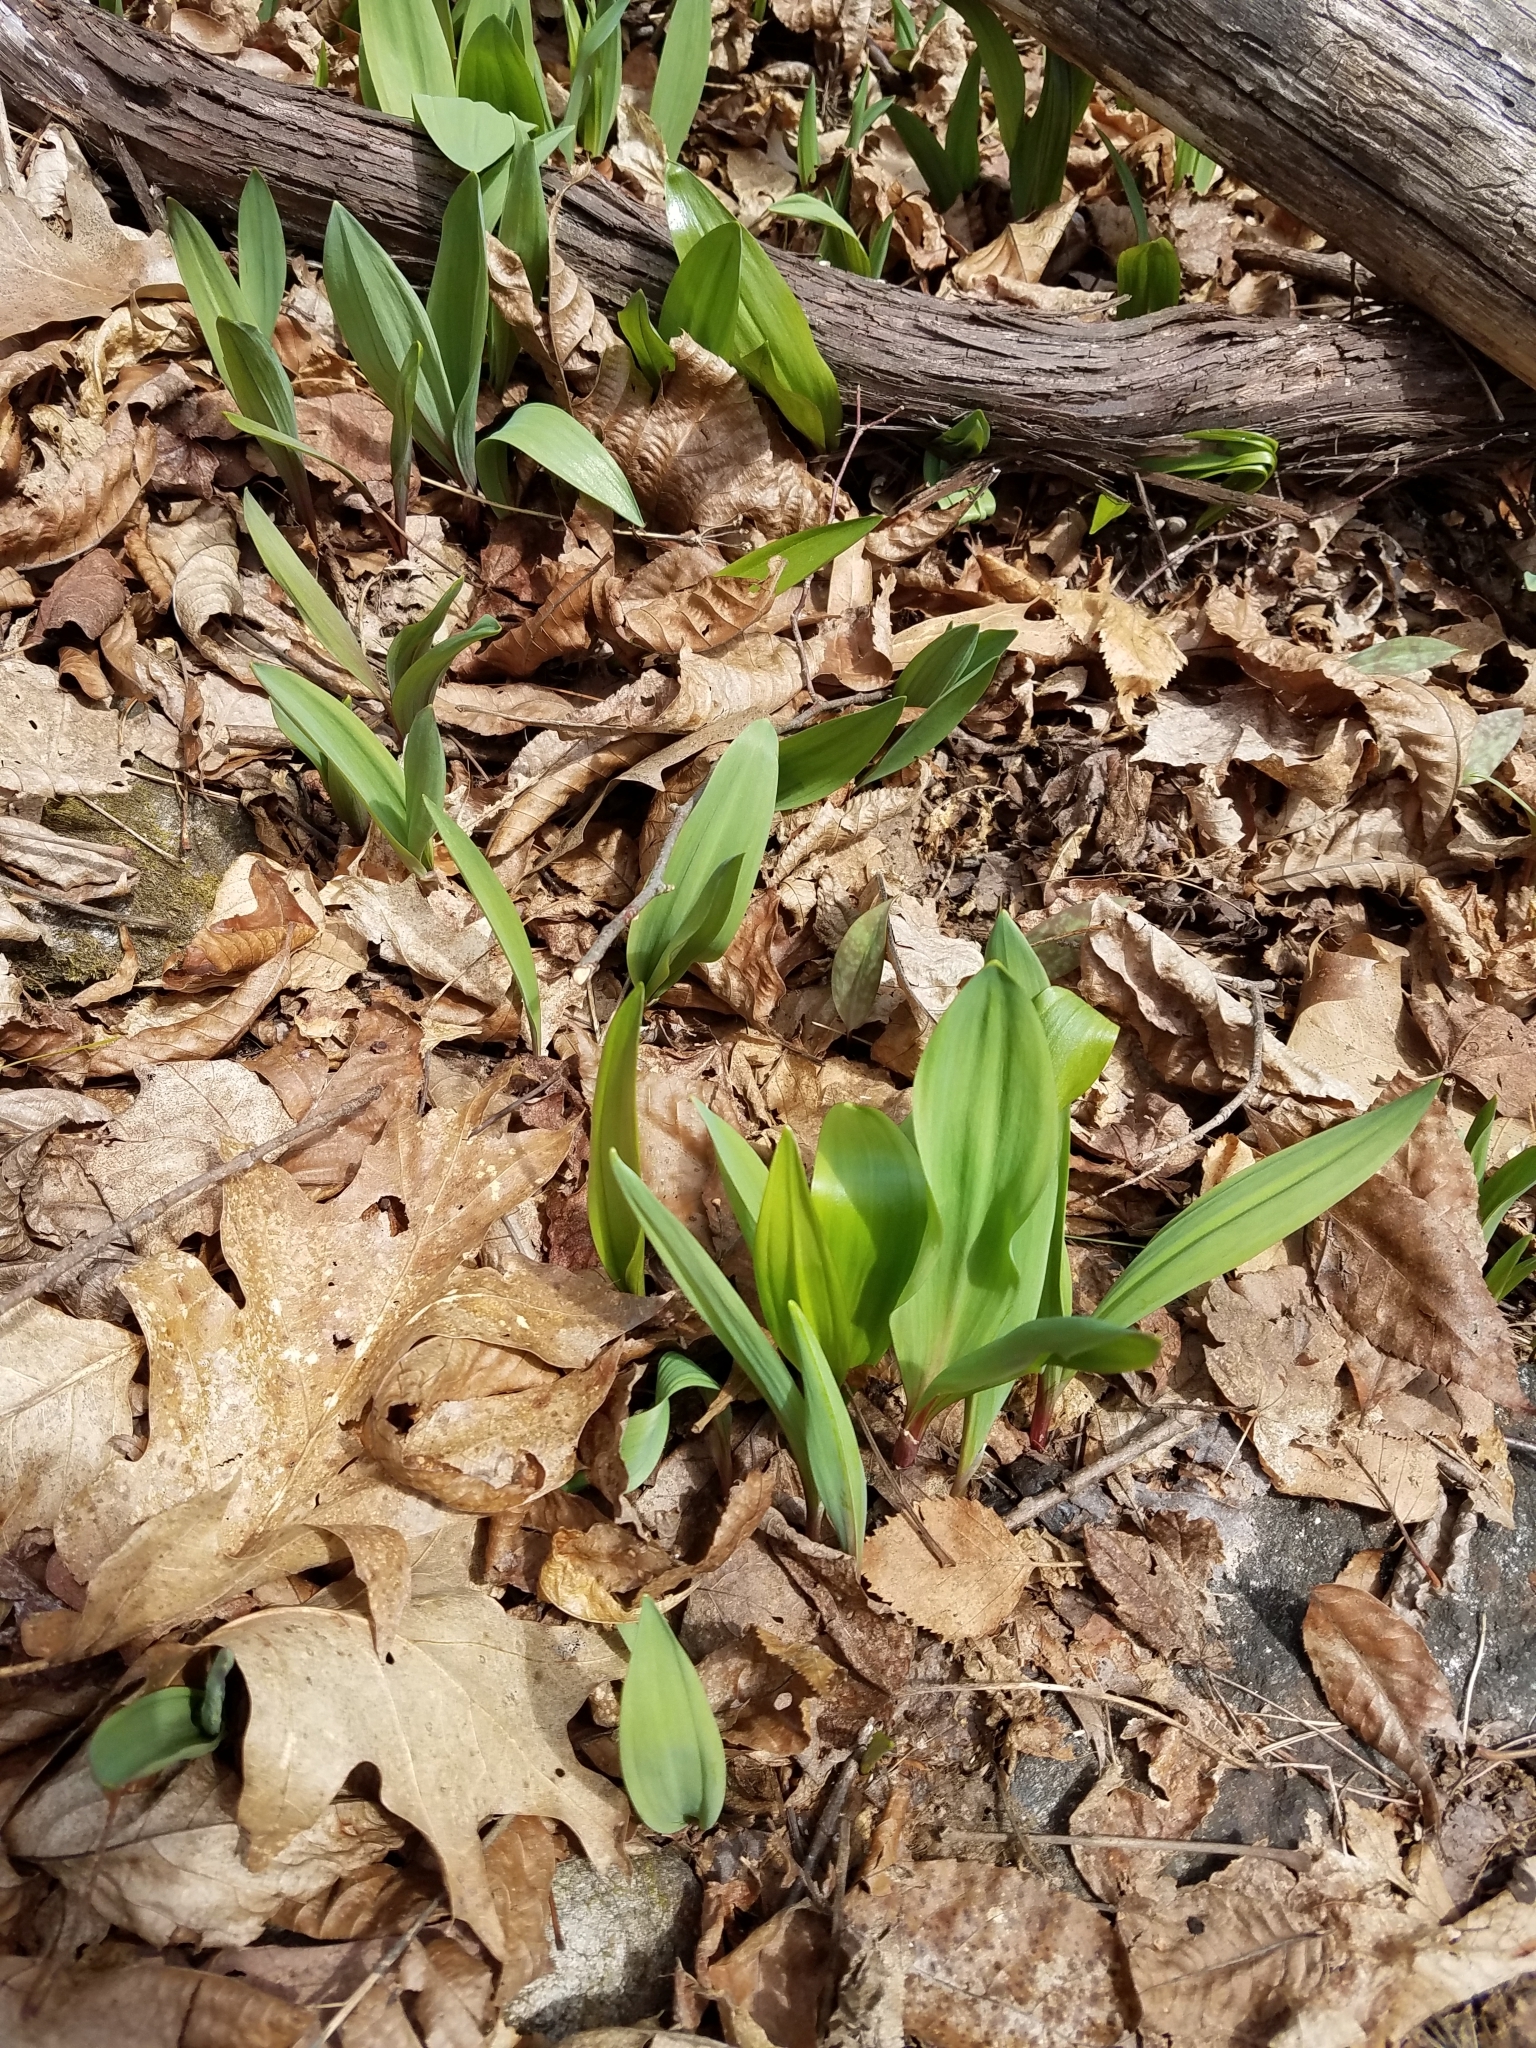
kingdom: Plantae
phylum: Tracheophyta
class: Liliopsida
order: Asparagales
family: Amaryllidaceae
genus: Allium
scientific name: Allium tricoccum
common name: Ramp
